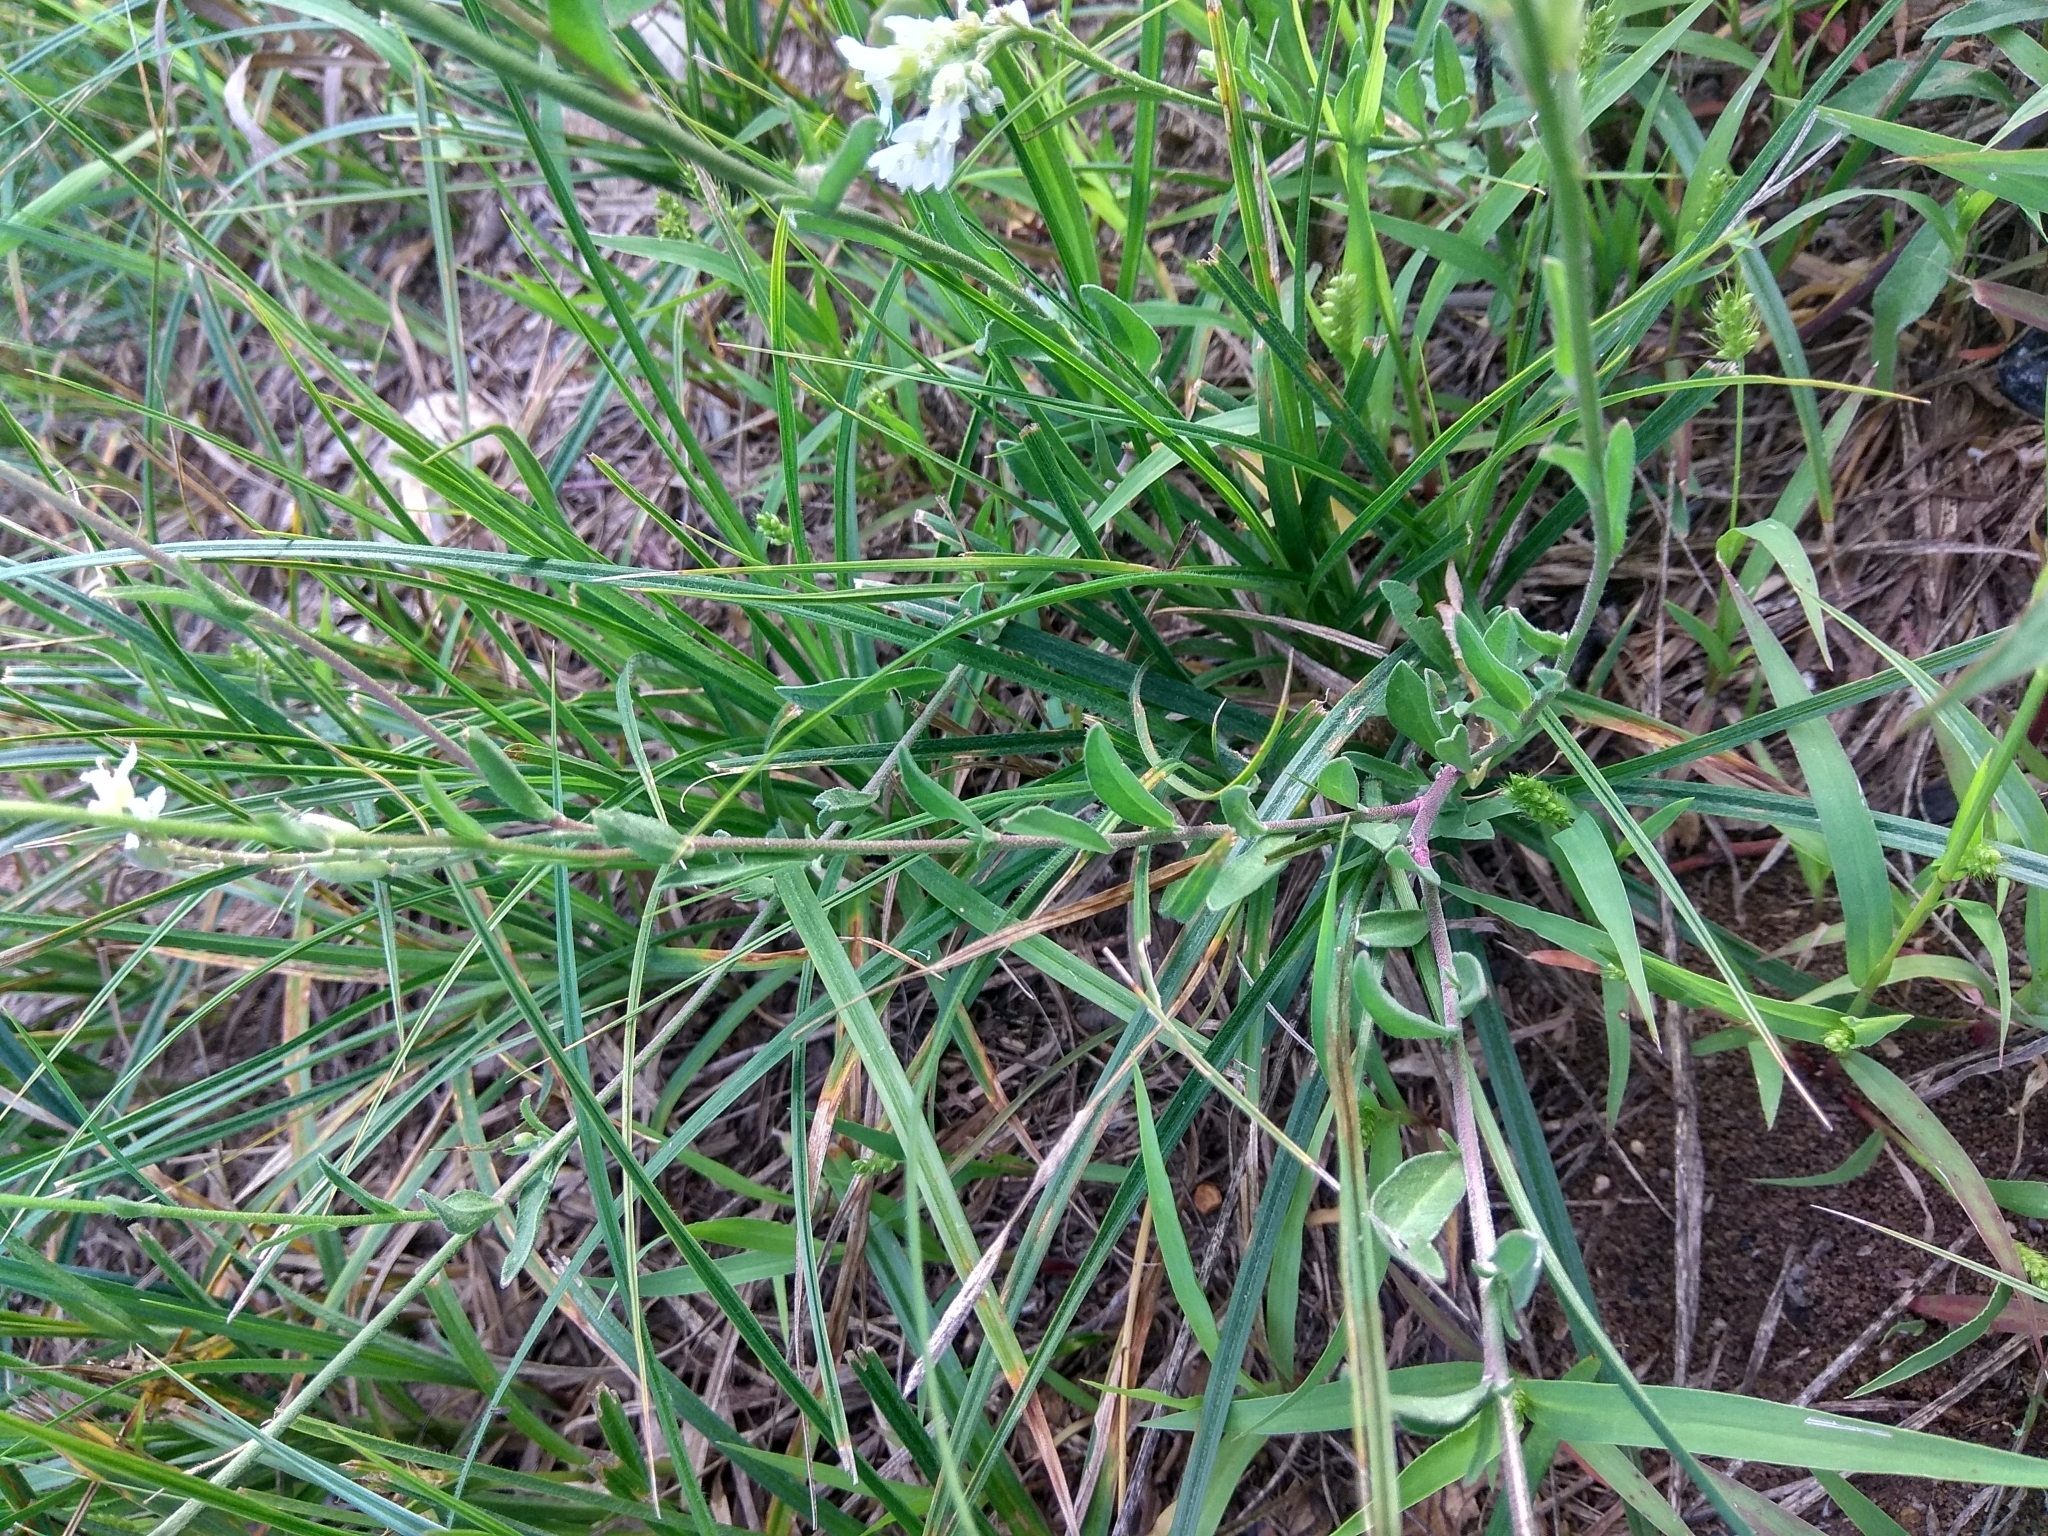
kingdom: Plantae
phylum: Tracheophyta
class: Magnoliopsida
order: Brassicales
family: Brassicaceae
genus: Berteroa
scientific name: Berteroa incana
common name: Hoary alison
